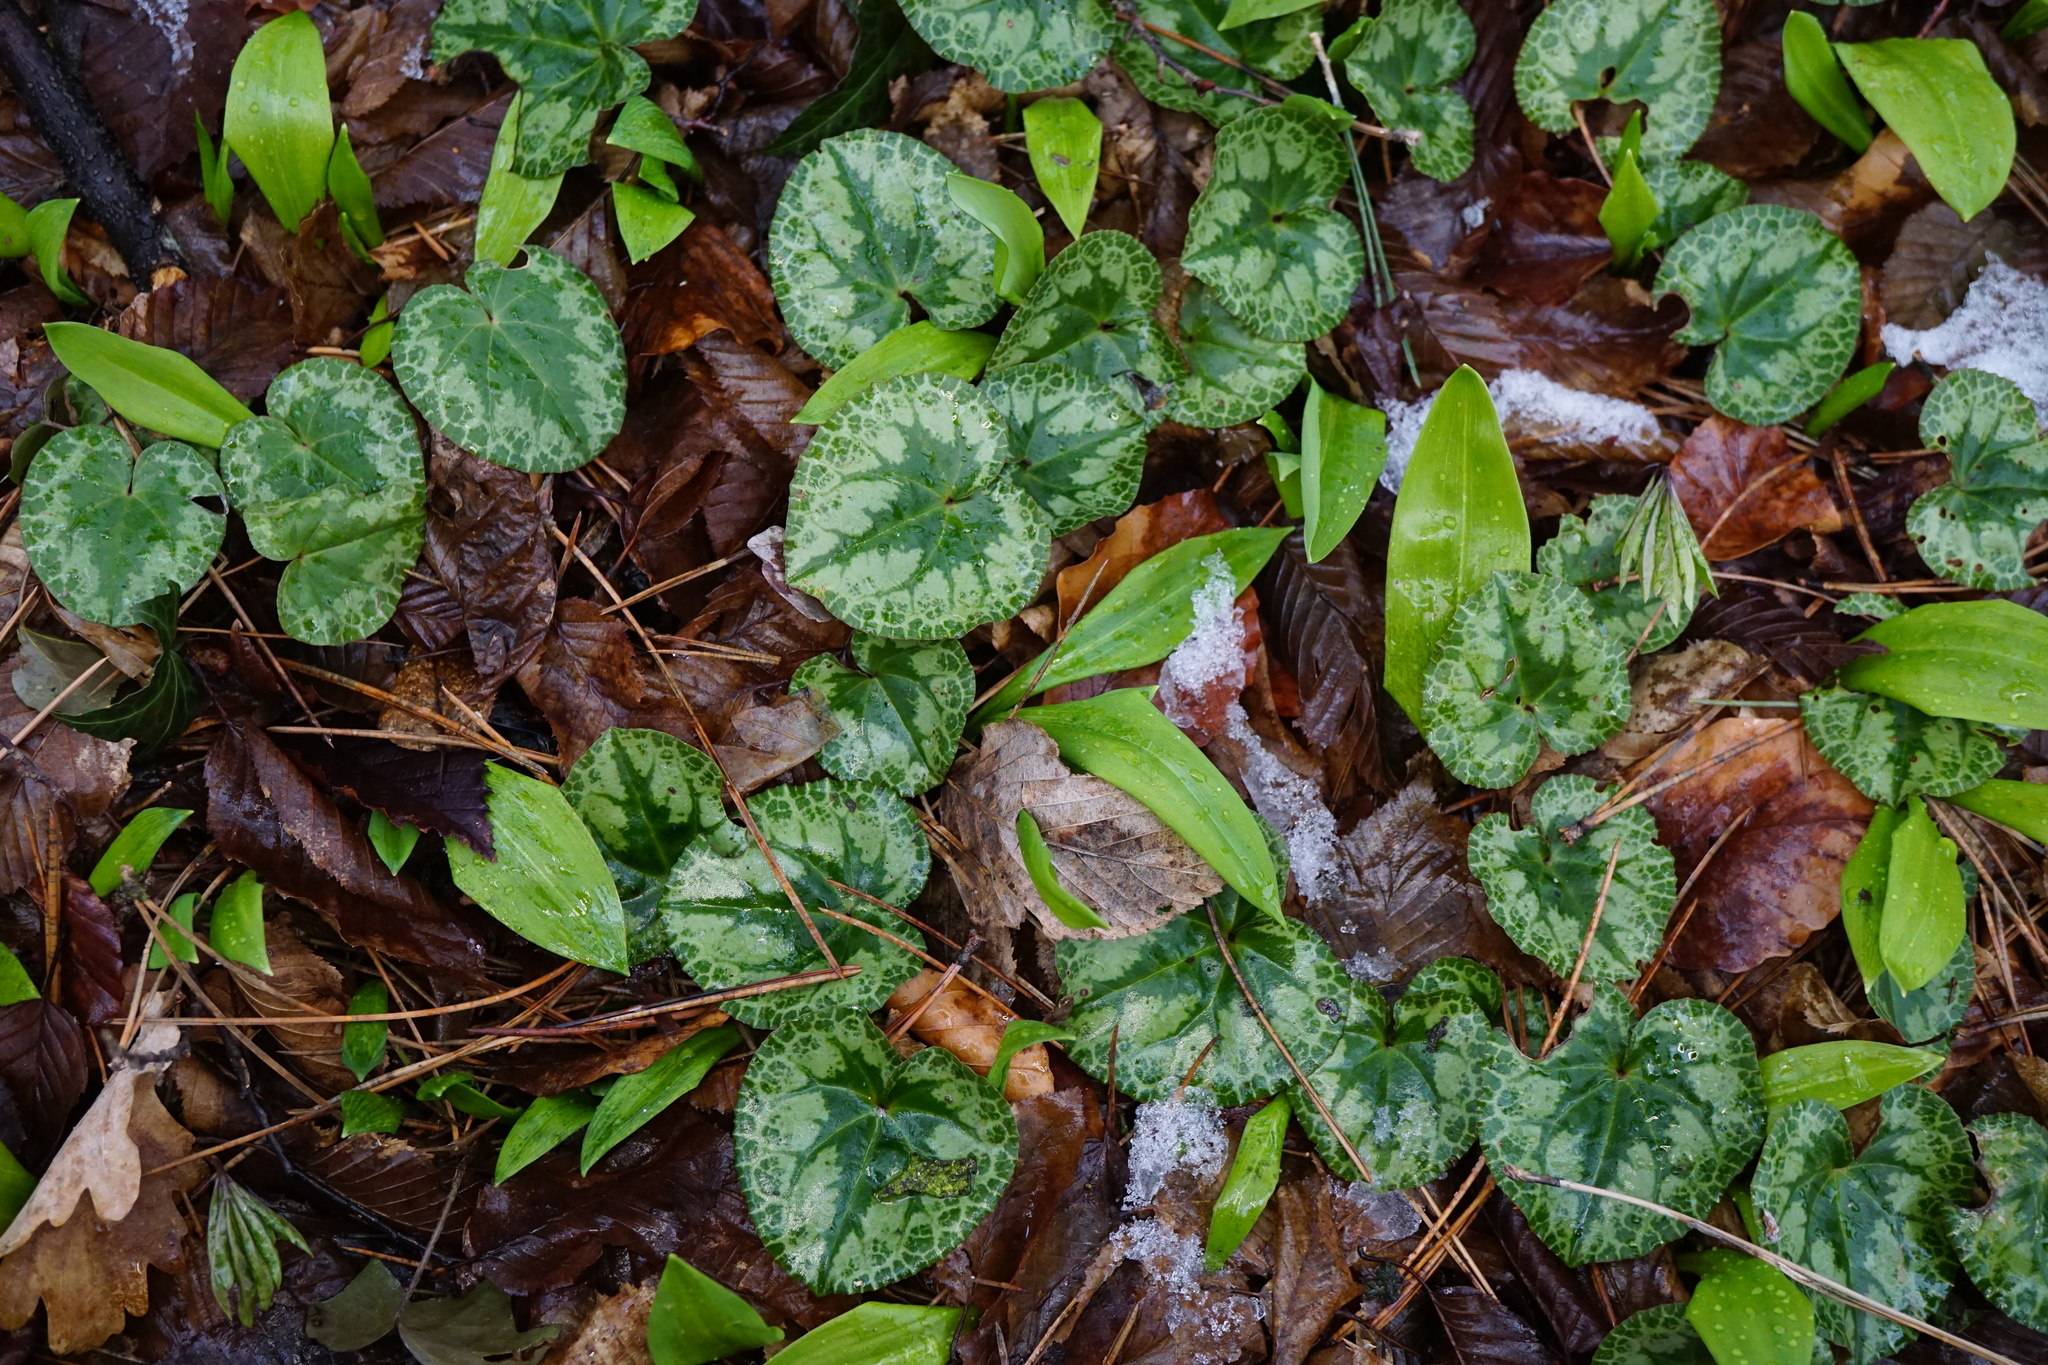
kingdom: Plantae
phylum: Tracheophyta
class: Magnoliopsida
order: Ericales
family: Primulaceae
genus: Cyclamen
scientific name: Cyclamen purpurascens
